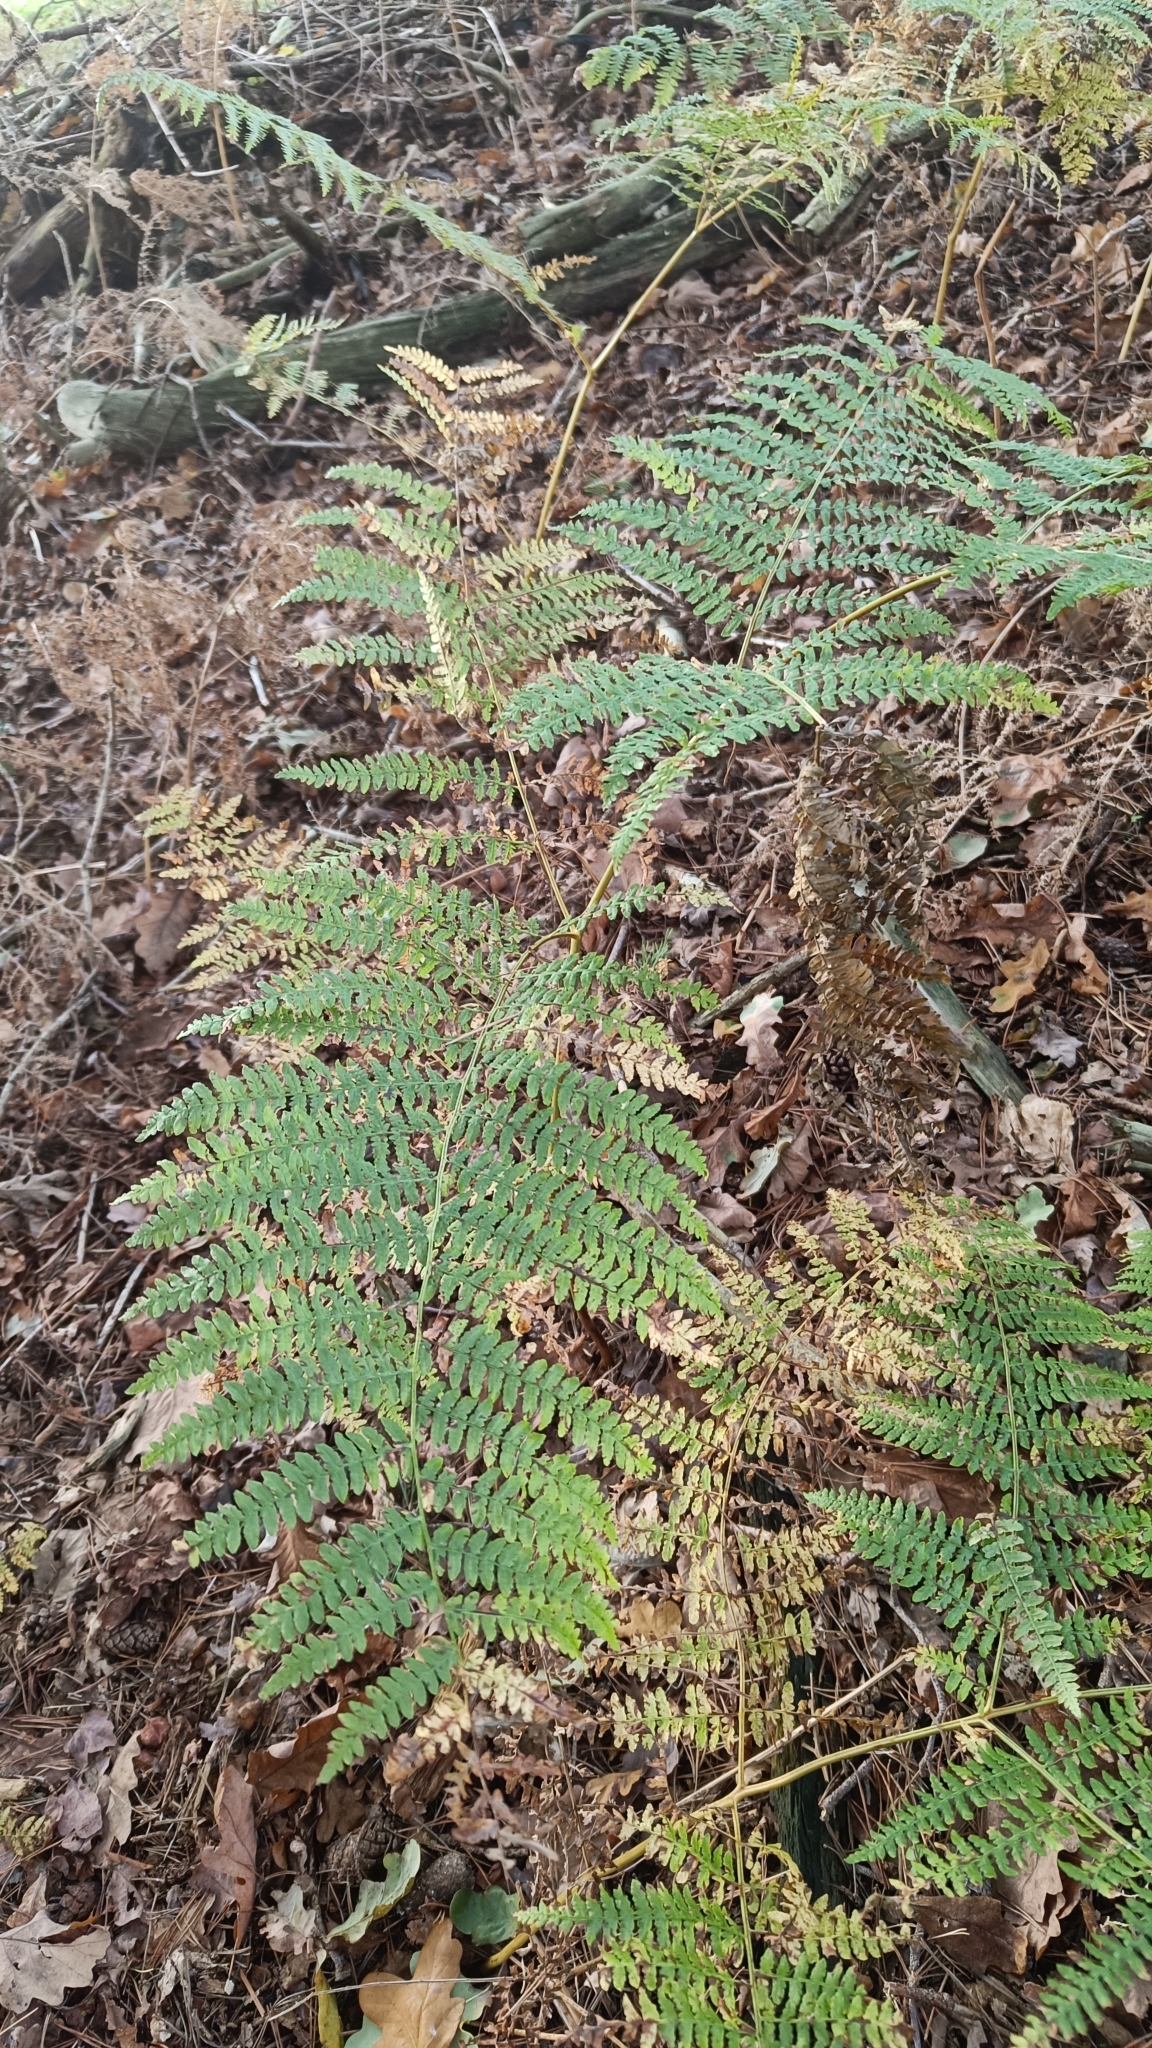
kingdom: Plantae
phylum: Tracheophyta
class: Polypodiopsida
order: Polypodiales
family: Dennstaedtiaceae
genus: Pteridium
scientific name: Pteridium aquilinum
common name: Bracken
